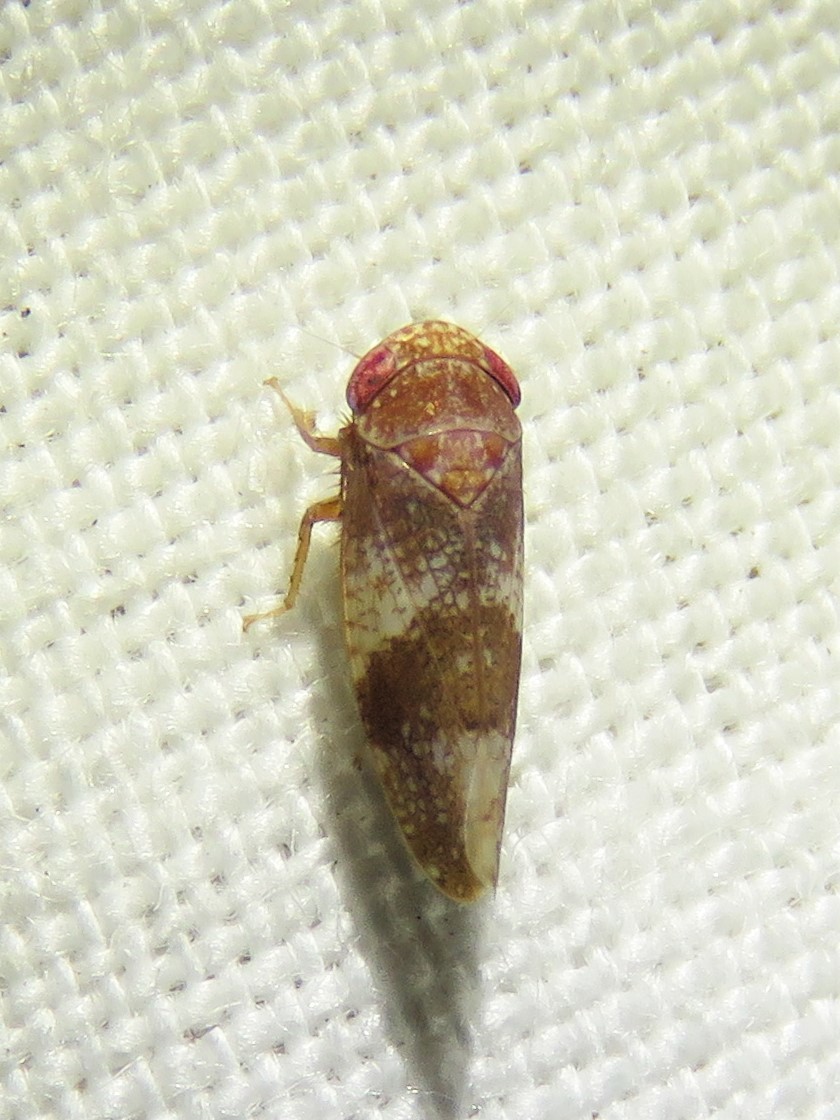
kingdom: Animalia
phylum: Arthropoda
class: Insecta
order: Hemiptera
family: Cicadellidae
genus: Norvellina
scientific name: Norvellina helenae
